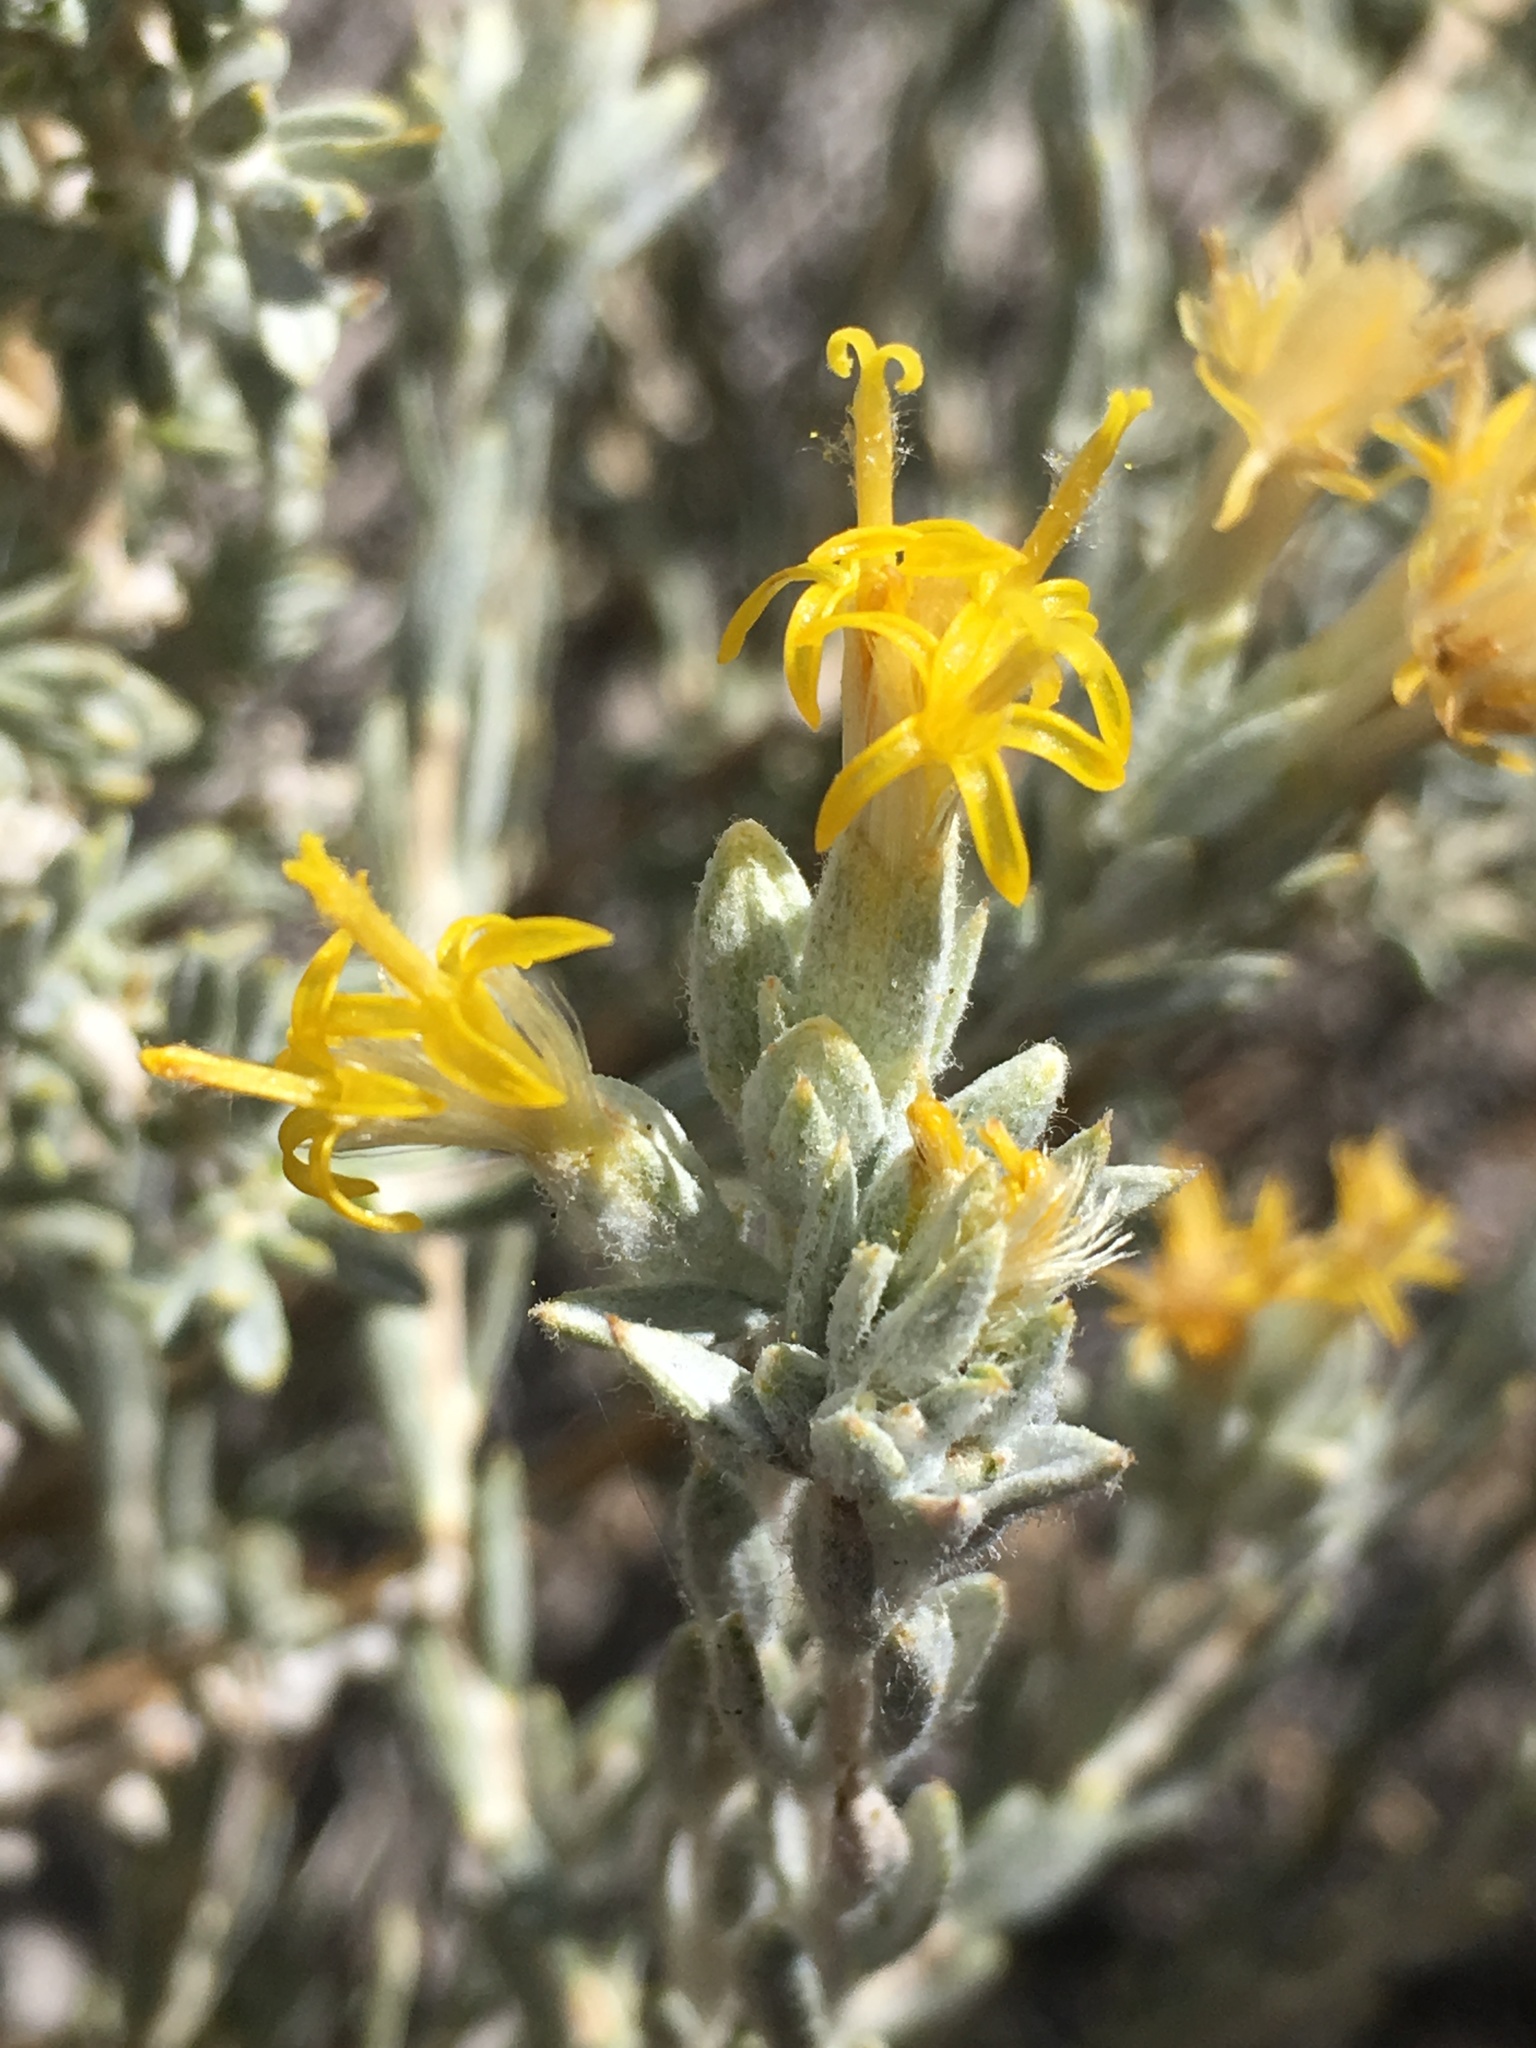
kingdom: Plantae
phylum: Tracheophyta
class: Magnoliopsida
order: Asterales
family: Asteraceae
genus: Tetradymia
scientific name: Tetradymia canescens
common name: Spineless horsebrush
